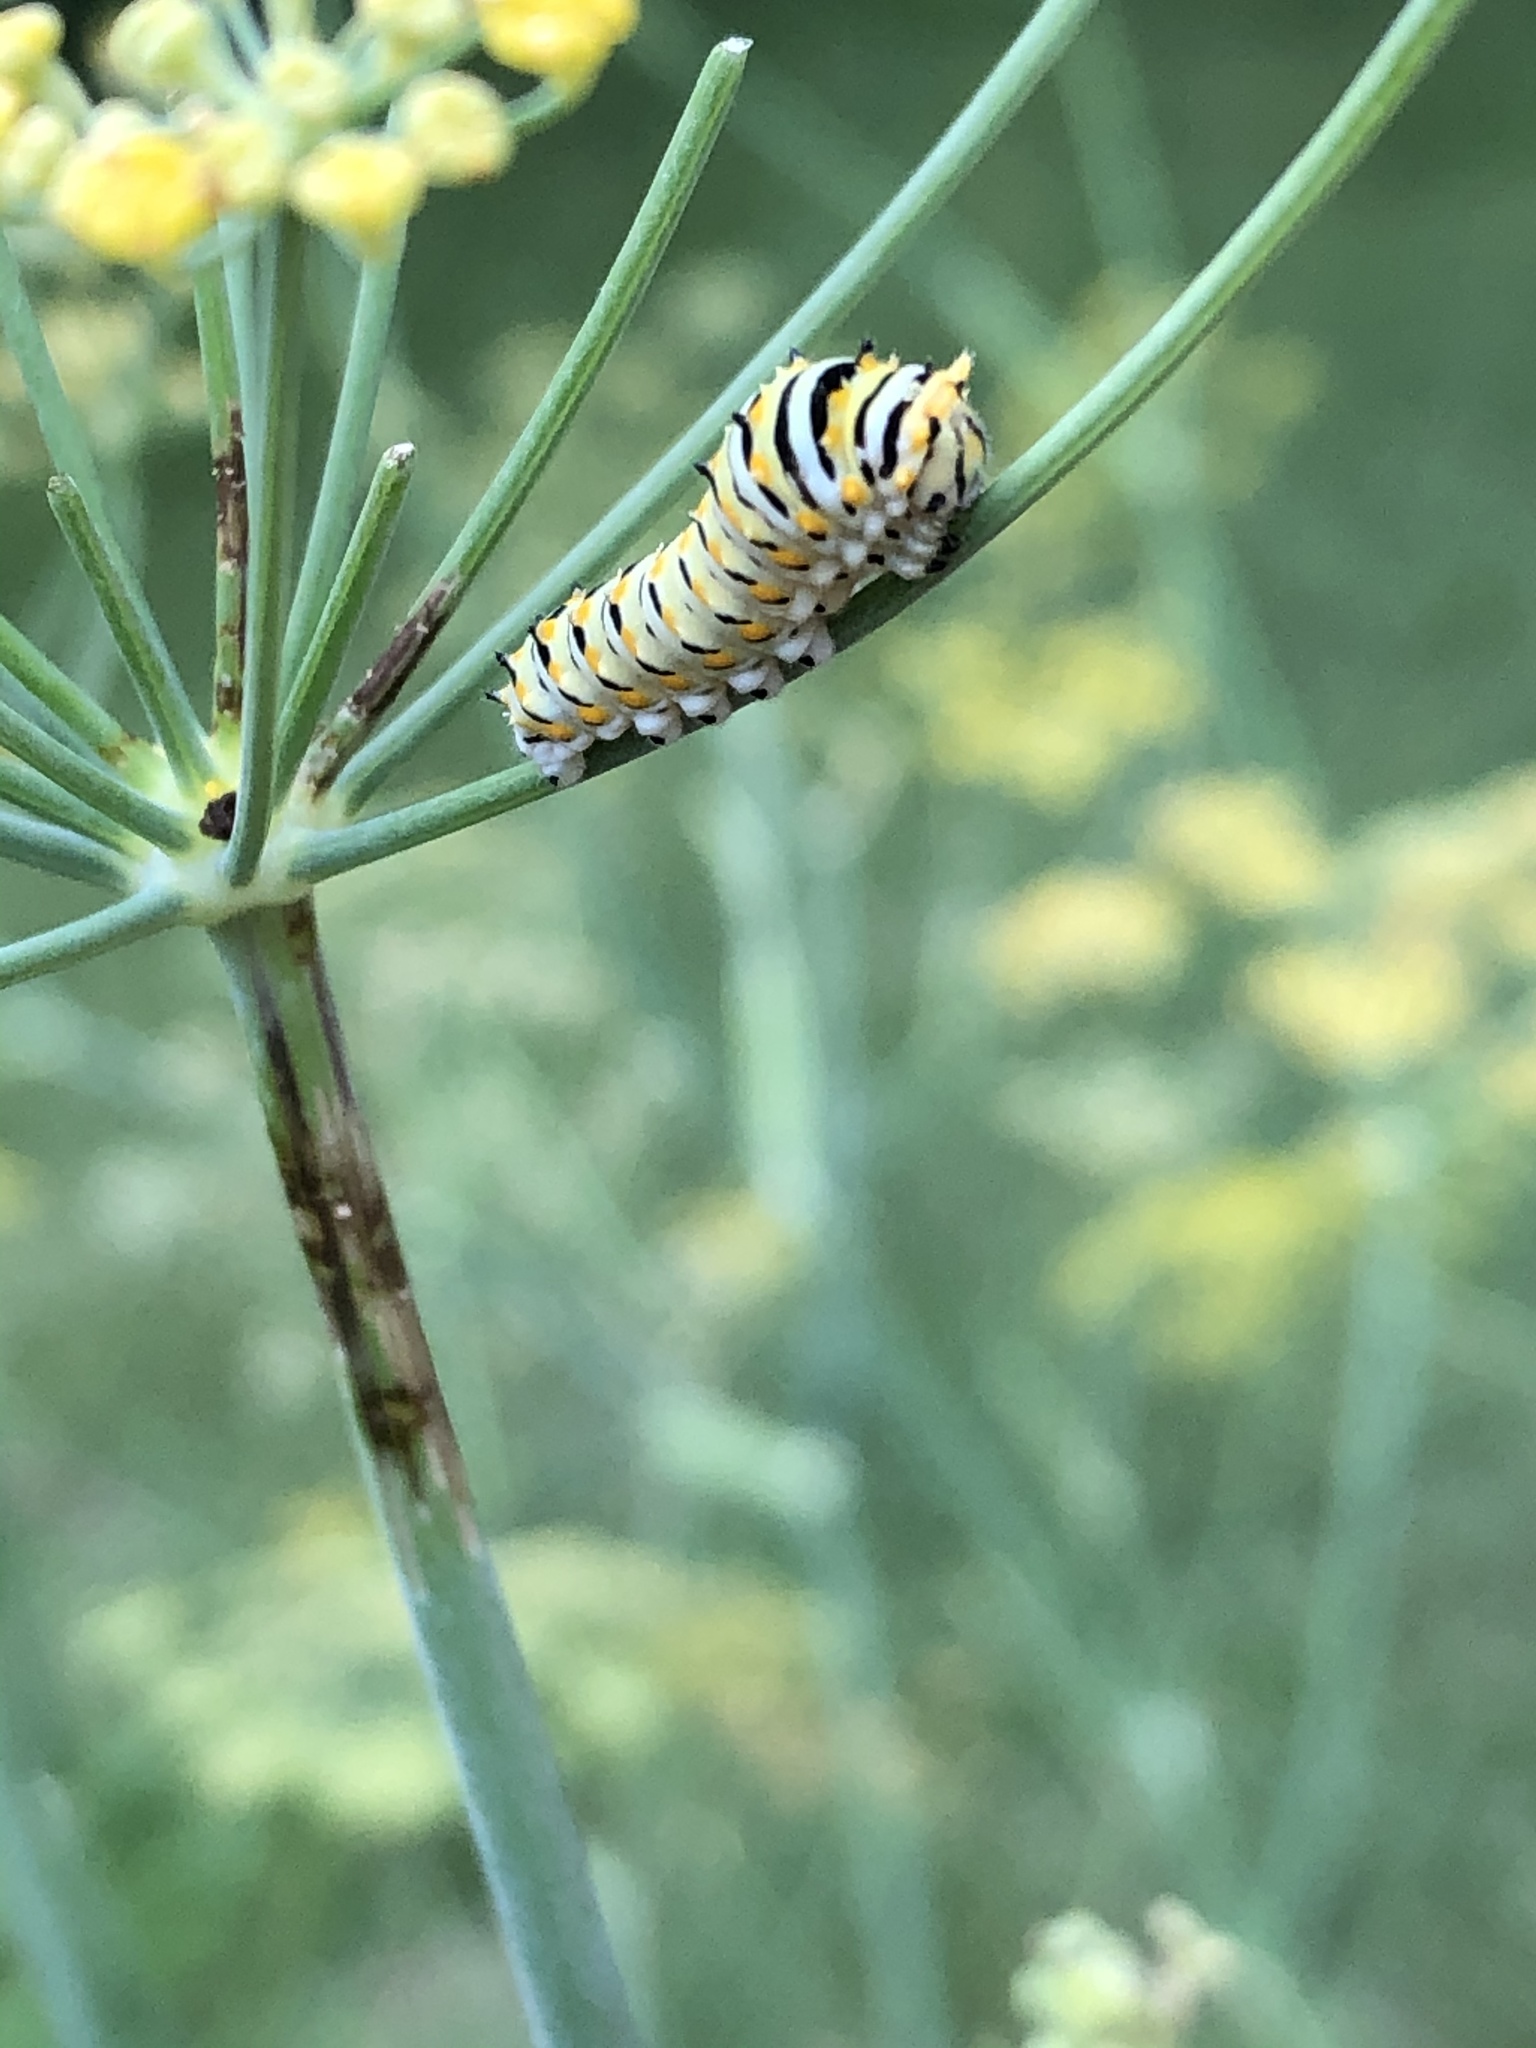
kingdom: Animalia
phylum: Arthropoda
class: Insecta
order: Lepidoptera
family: Papilionidae
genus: Papilio
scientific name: Papilio polyxenes
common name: Black swallowtail
